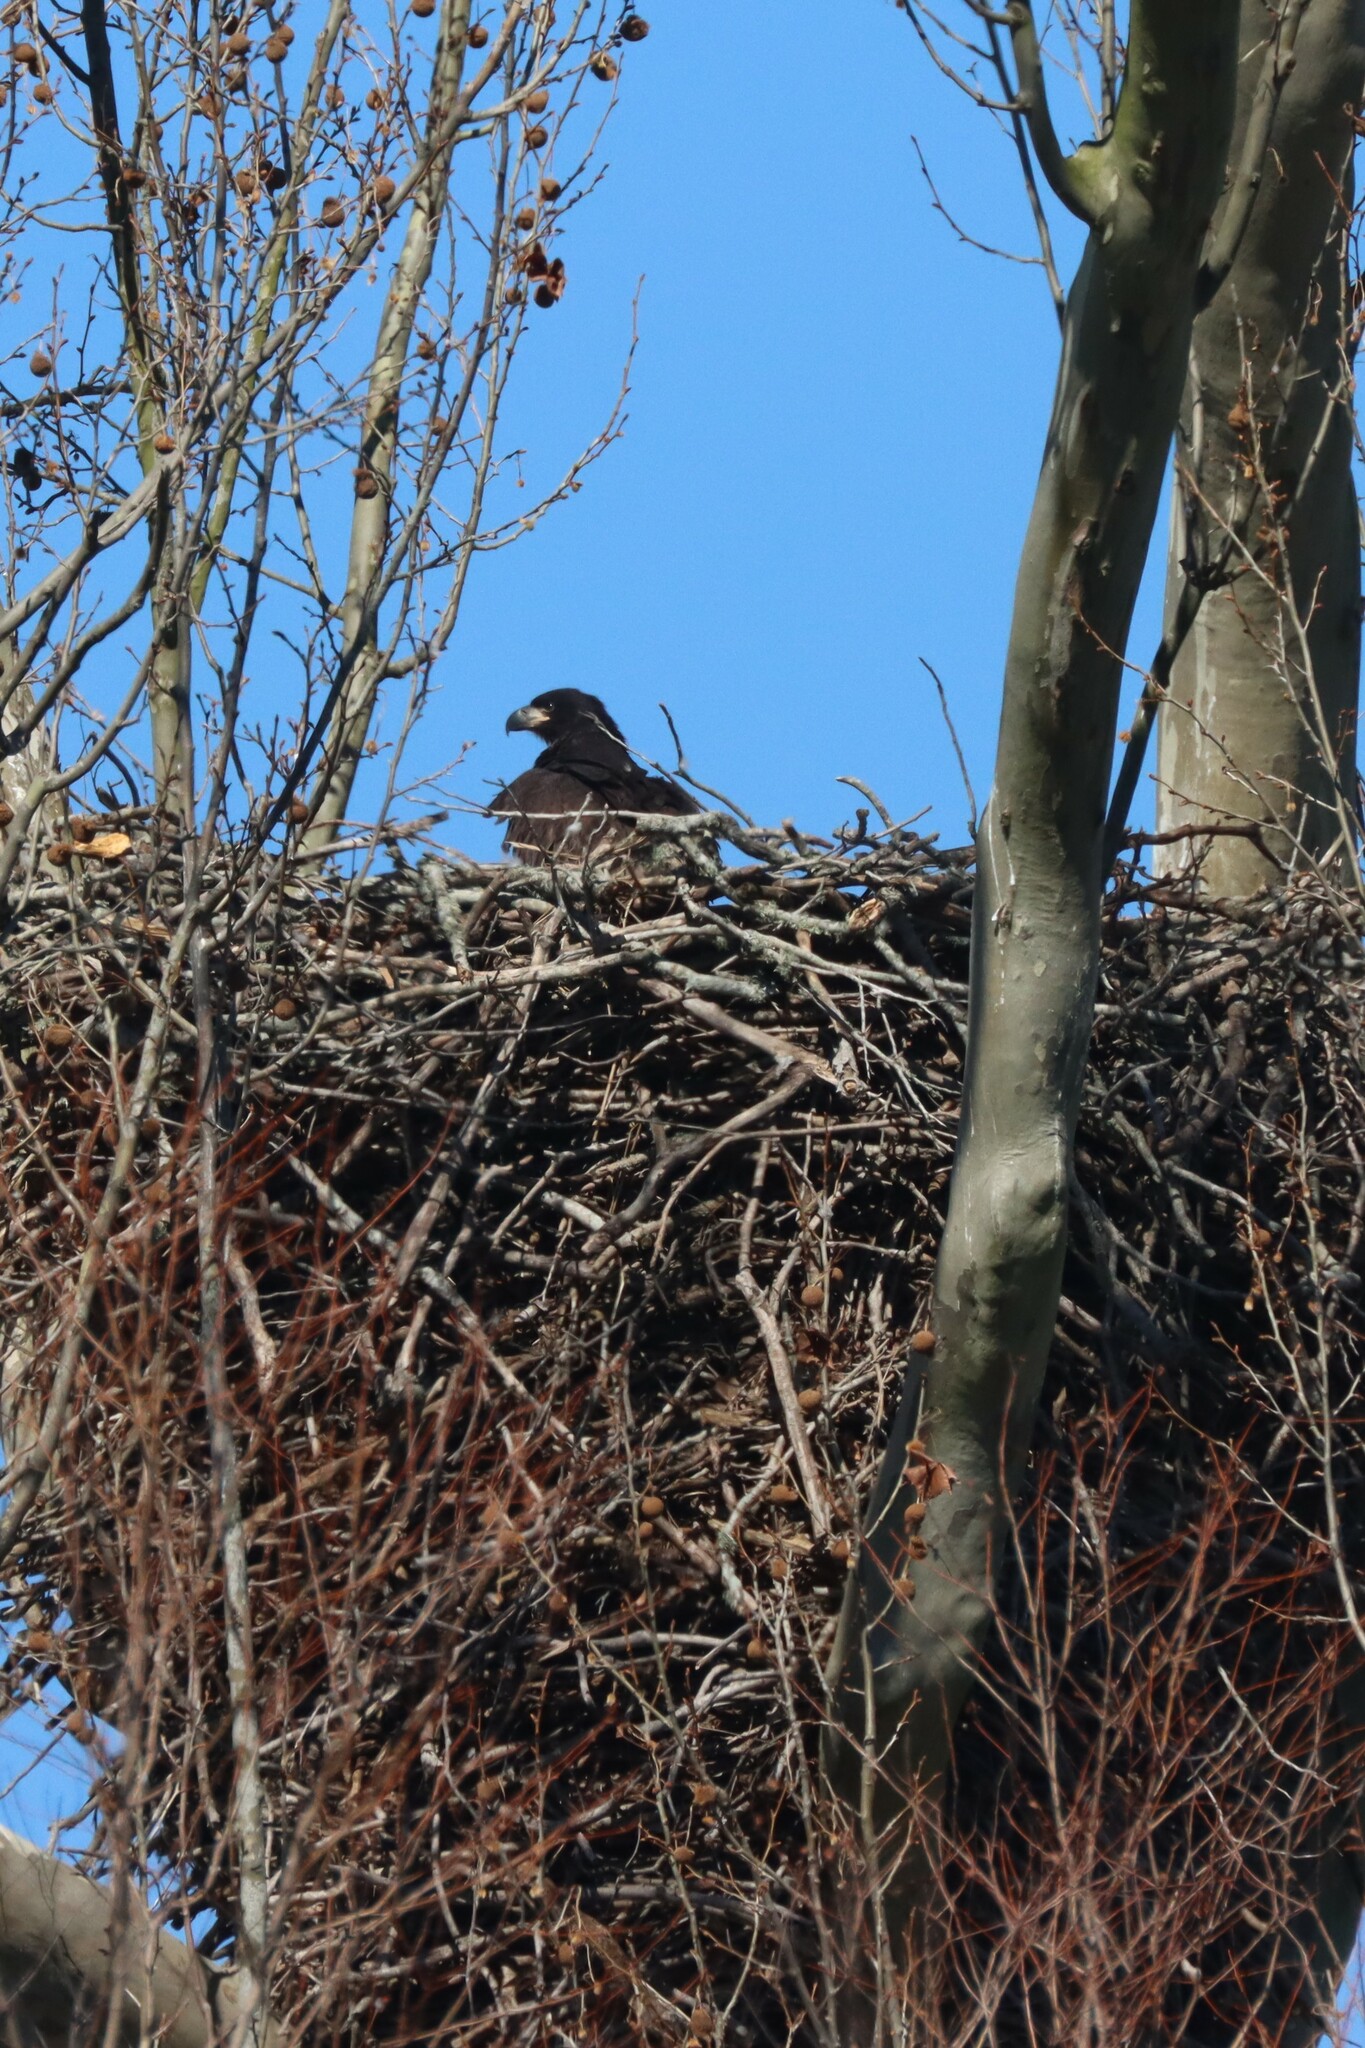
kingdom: Animalia
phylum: Chordata
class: Aves
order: Accipitriformes
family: Accipitridae
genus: Haliaeetus
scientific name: Haliaeetus leucocephalus
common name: Bald eagle
